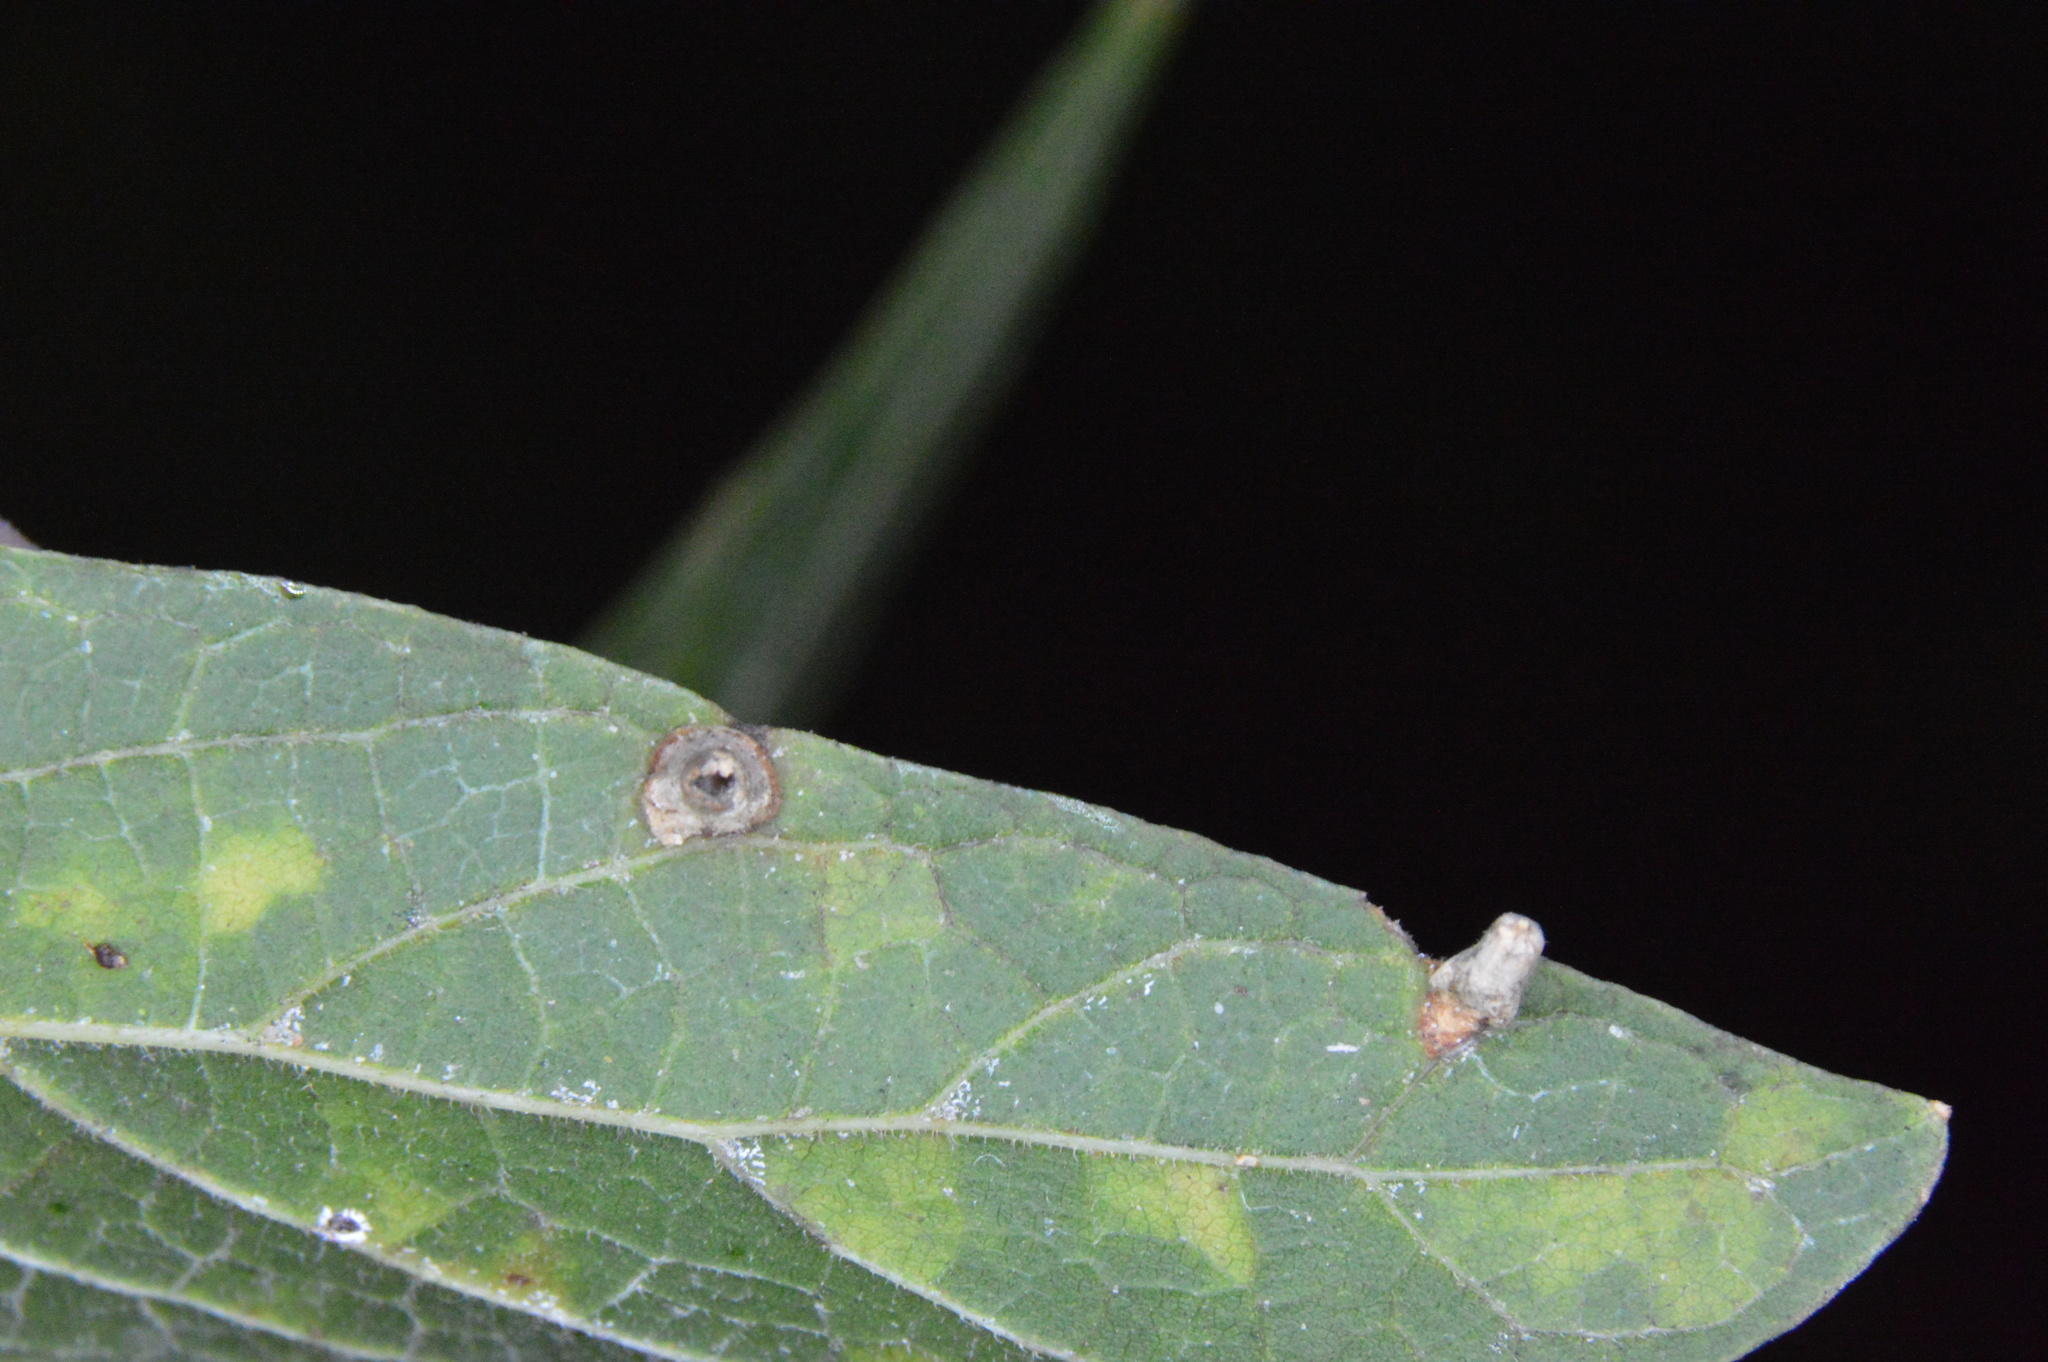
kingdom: Animalia
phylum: Arthropoda
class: Insecta
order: Diptera
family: Cecidomyiidae
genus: Celticecis
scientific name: Celticecis aciculata
